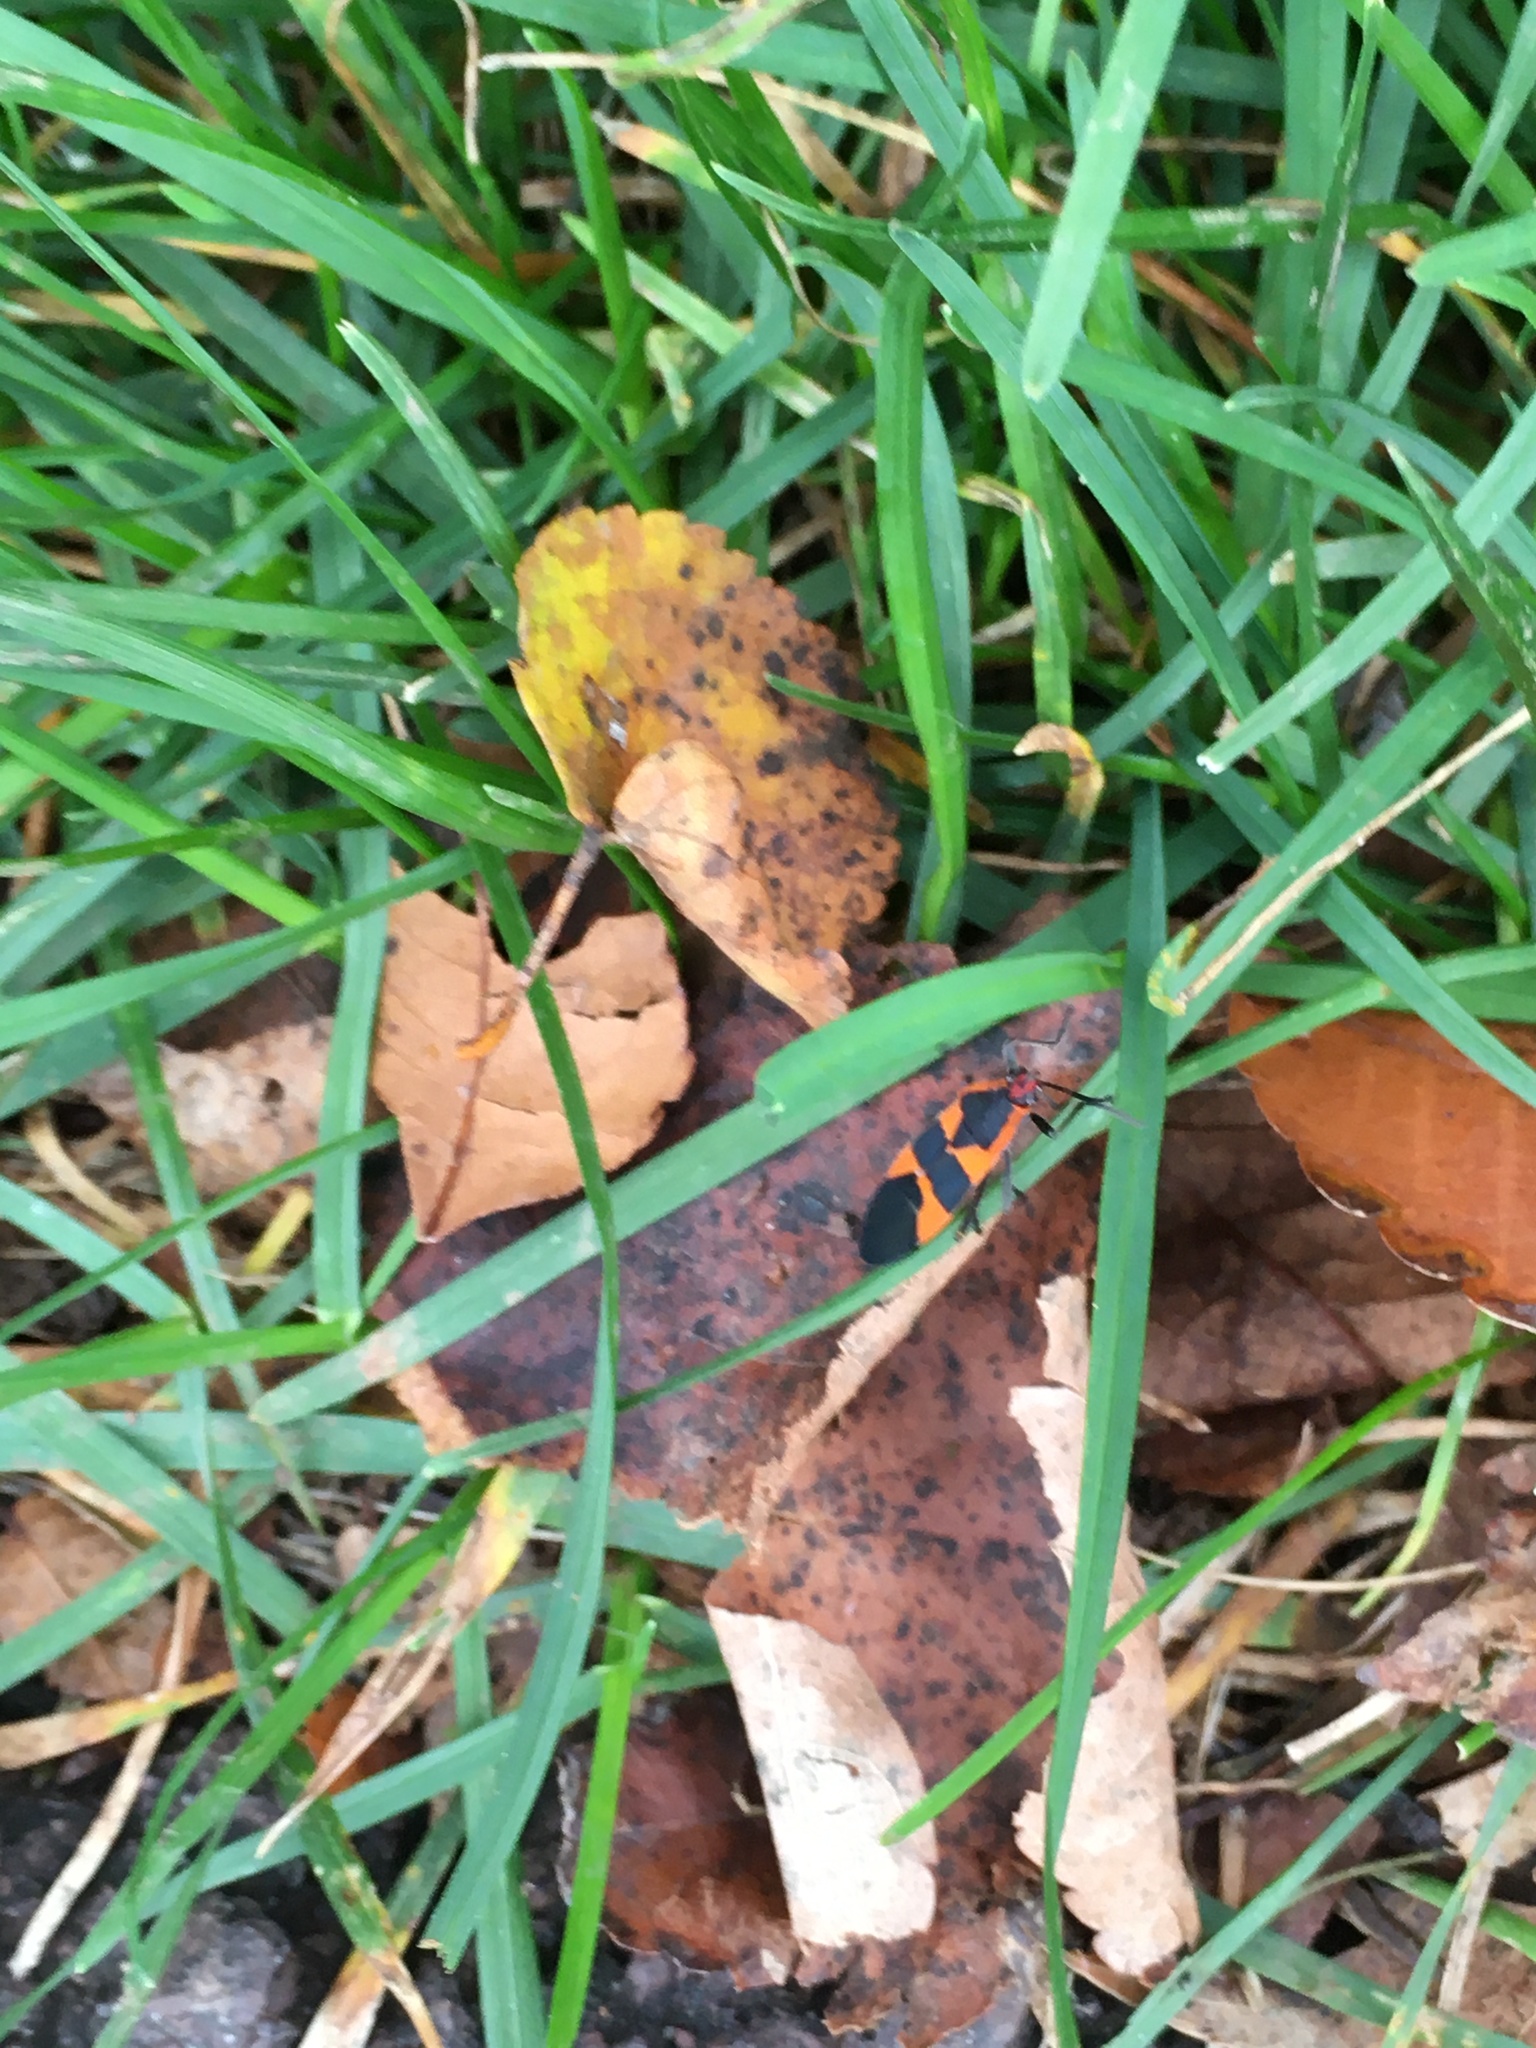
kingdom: Animalia
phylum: Arthropoda
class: Insecta
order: Hemiptera
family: Lygaeidae
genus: Oncopeltus
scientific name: Oncopeltus fasciatus
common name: Large milkweed bug
